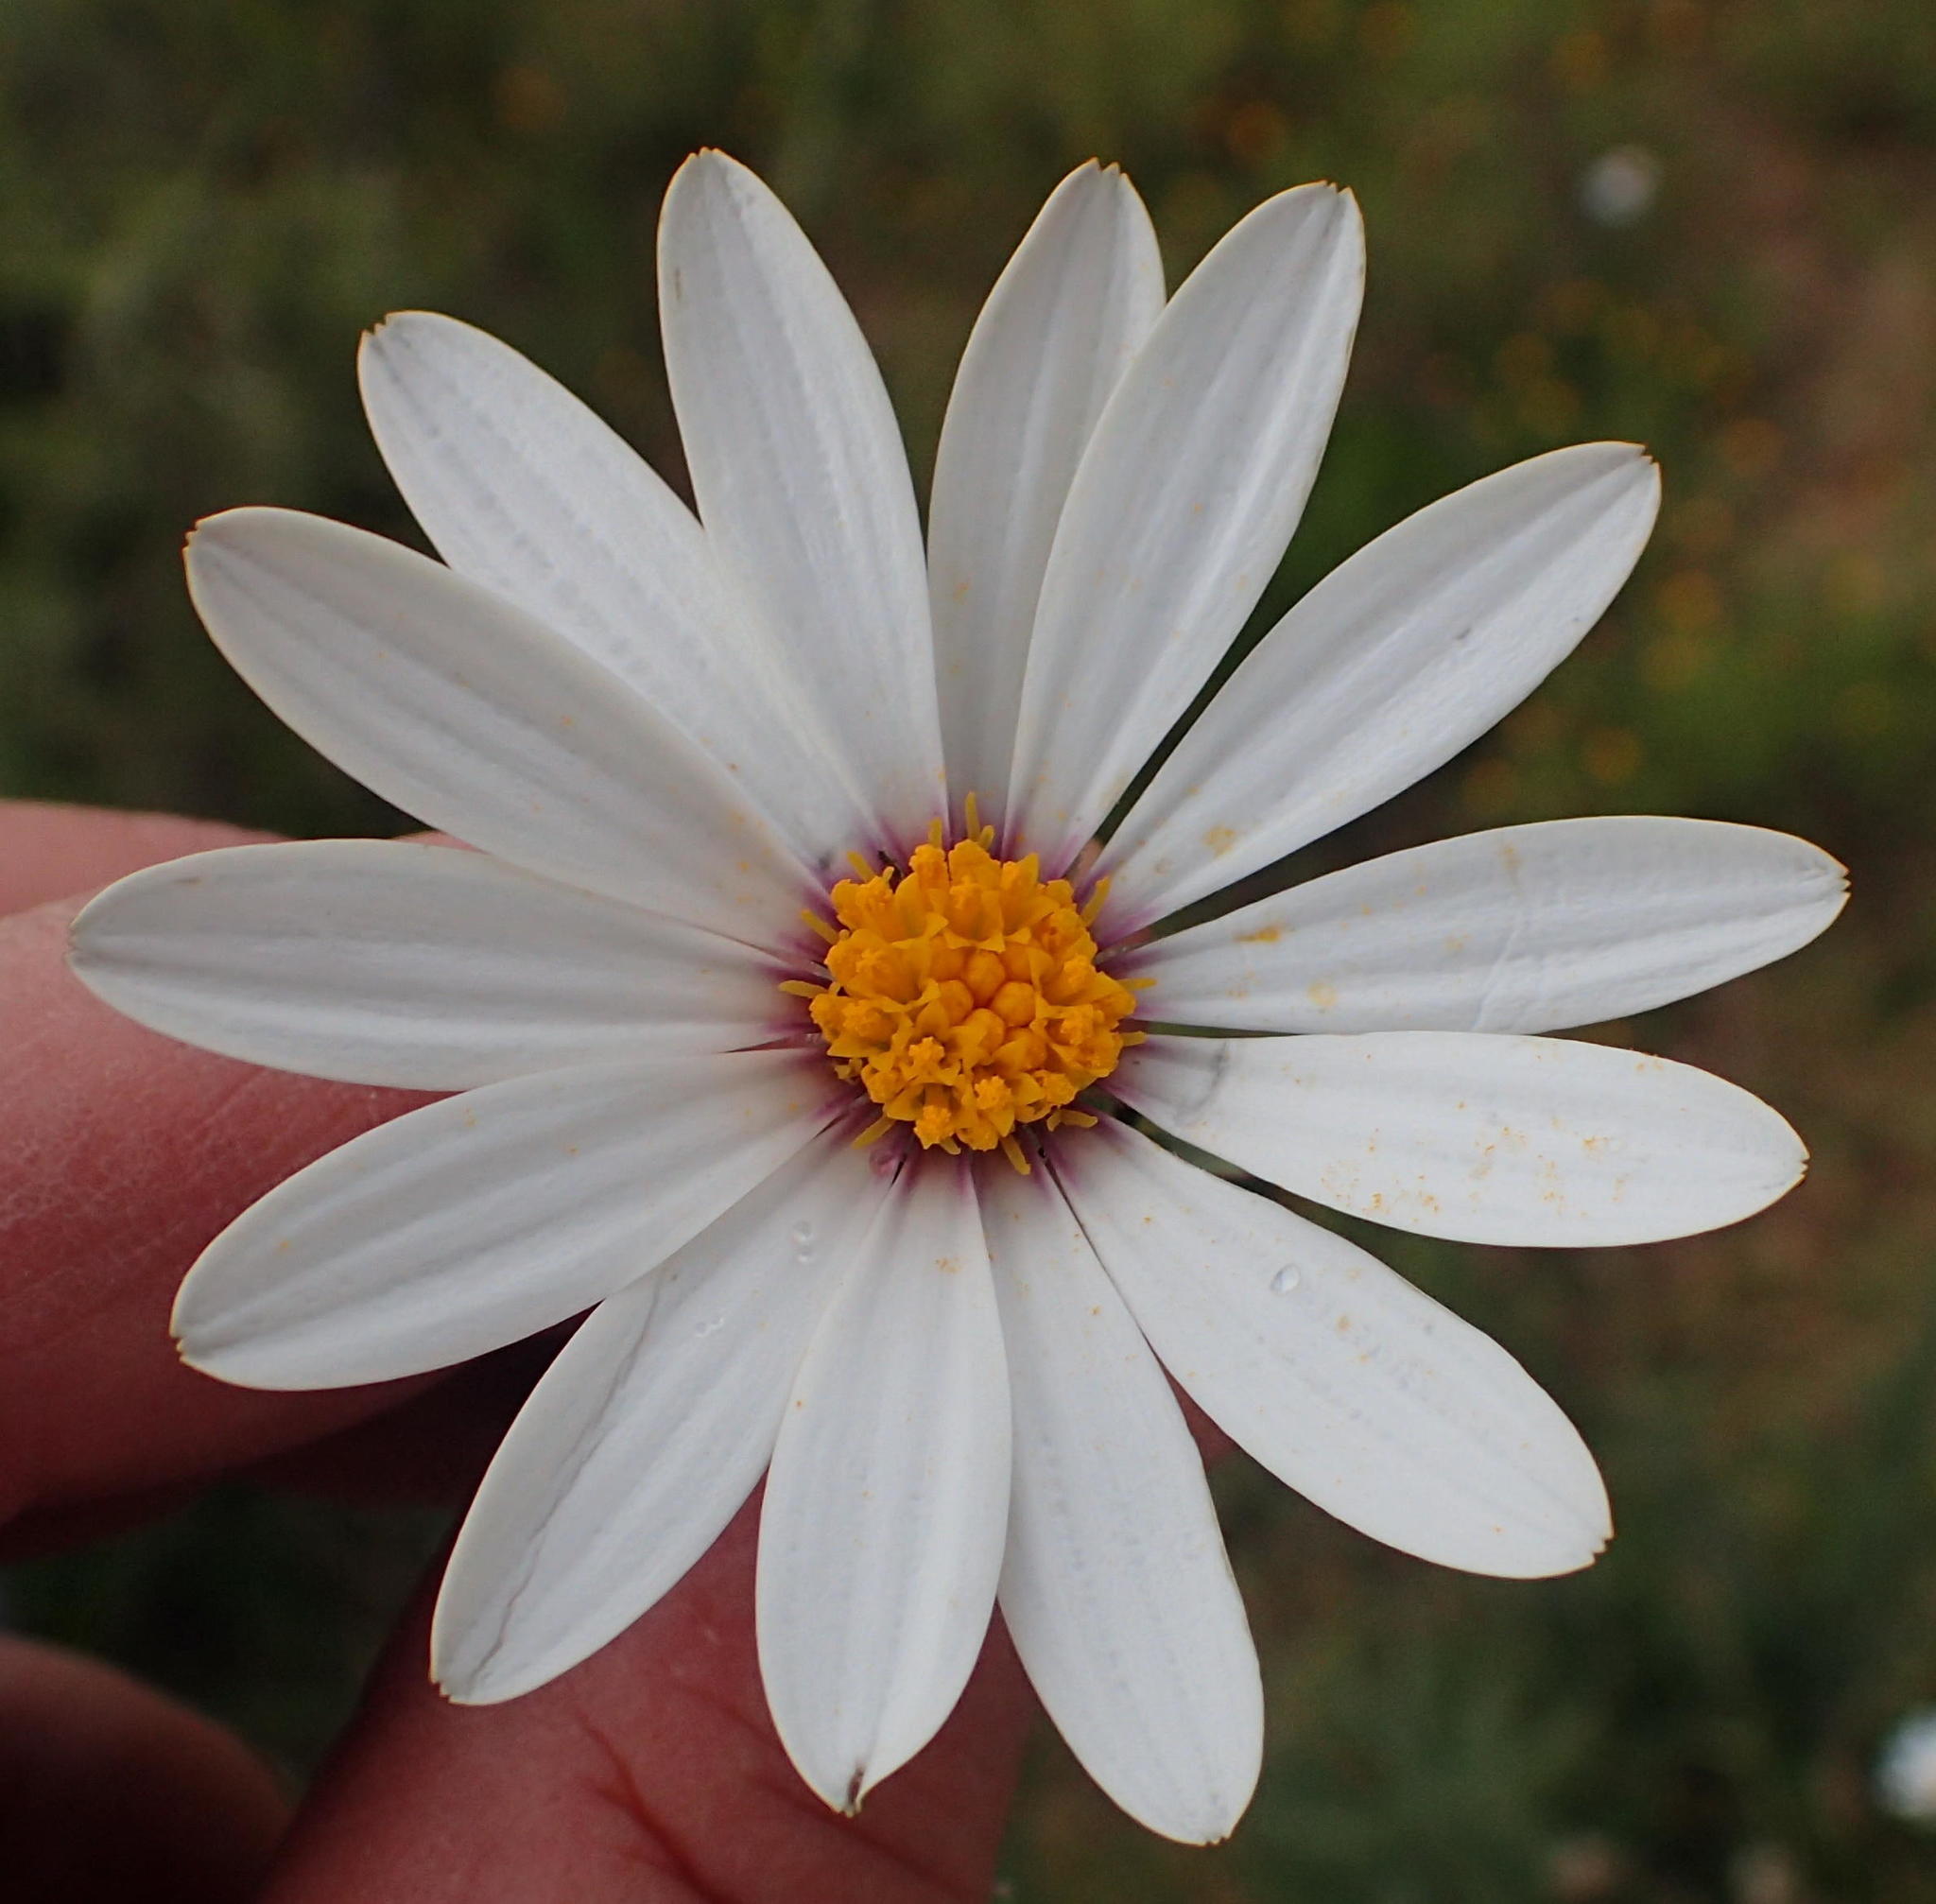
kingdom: Plantae
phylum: Tracheophyta
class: Magnoliopsida
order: Asterales
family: Asteraceae
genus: Dimorphotheca
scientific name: Dimorphotheca cuneata
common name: Daisy
